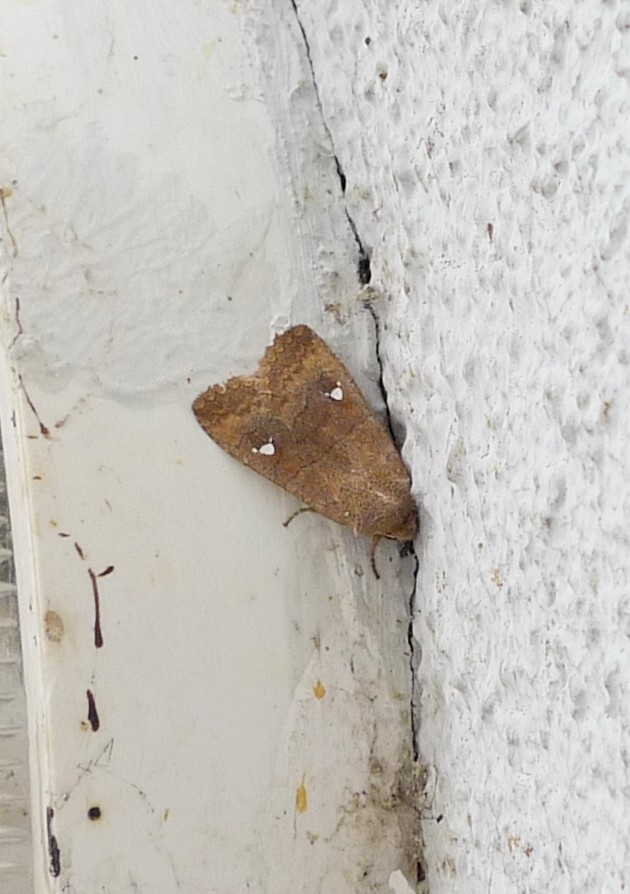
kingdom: Animalia
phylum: Arthropoda
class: Insecta
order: Lepidoptera
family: Noctuidae
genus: Eupsilia
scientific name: Eupsilia transversa
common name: Satellite
